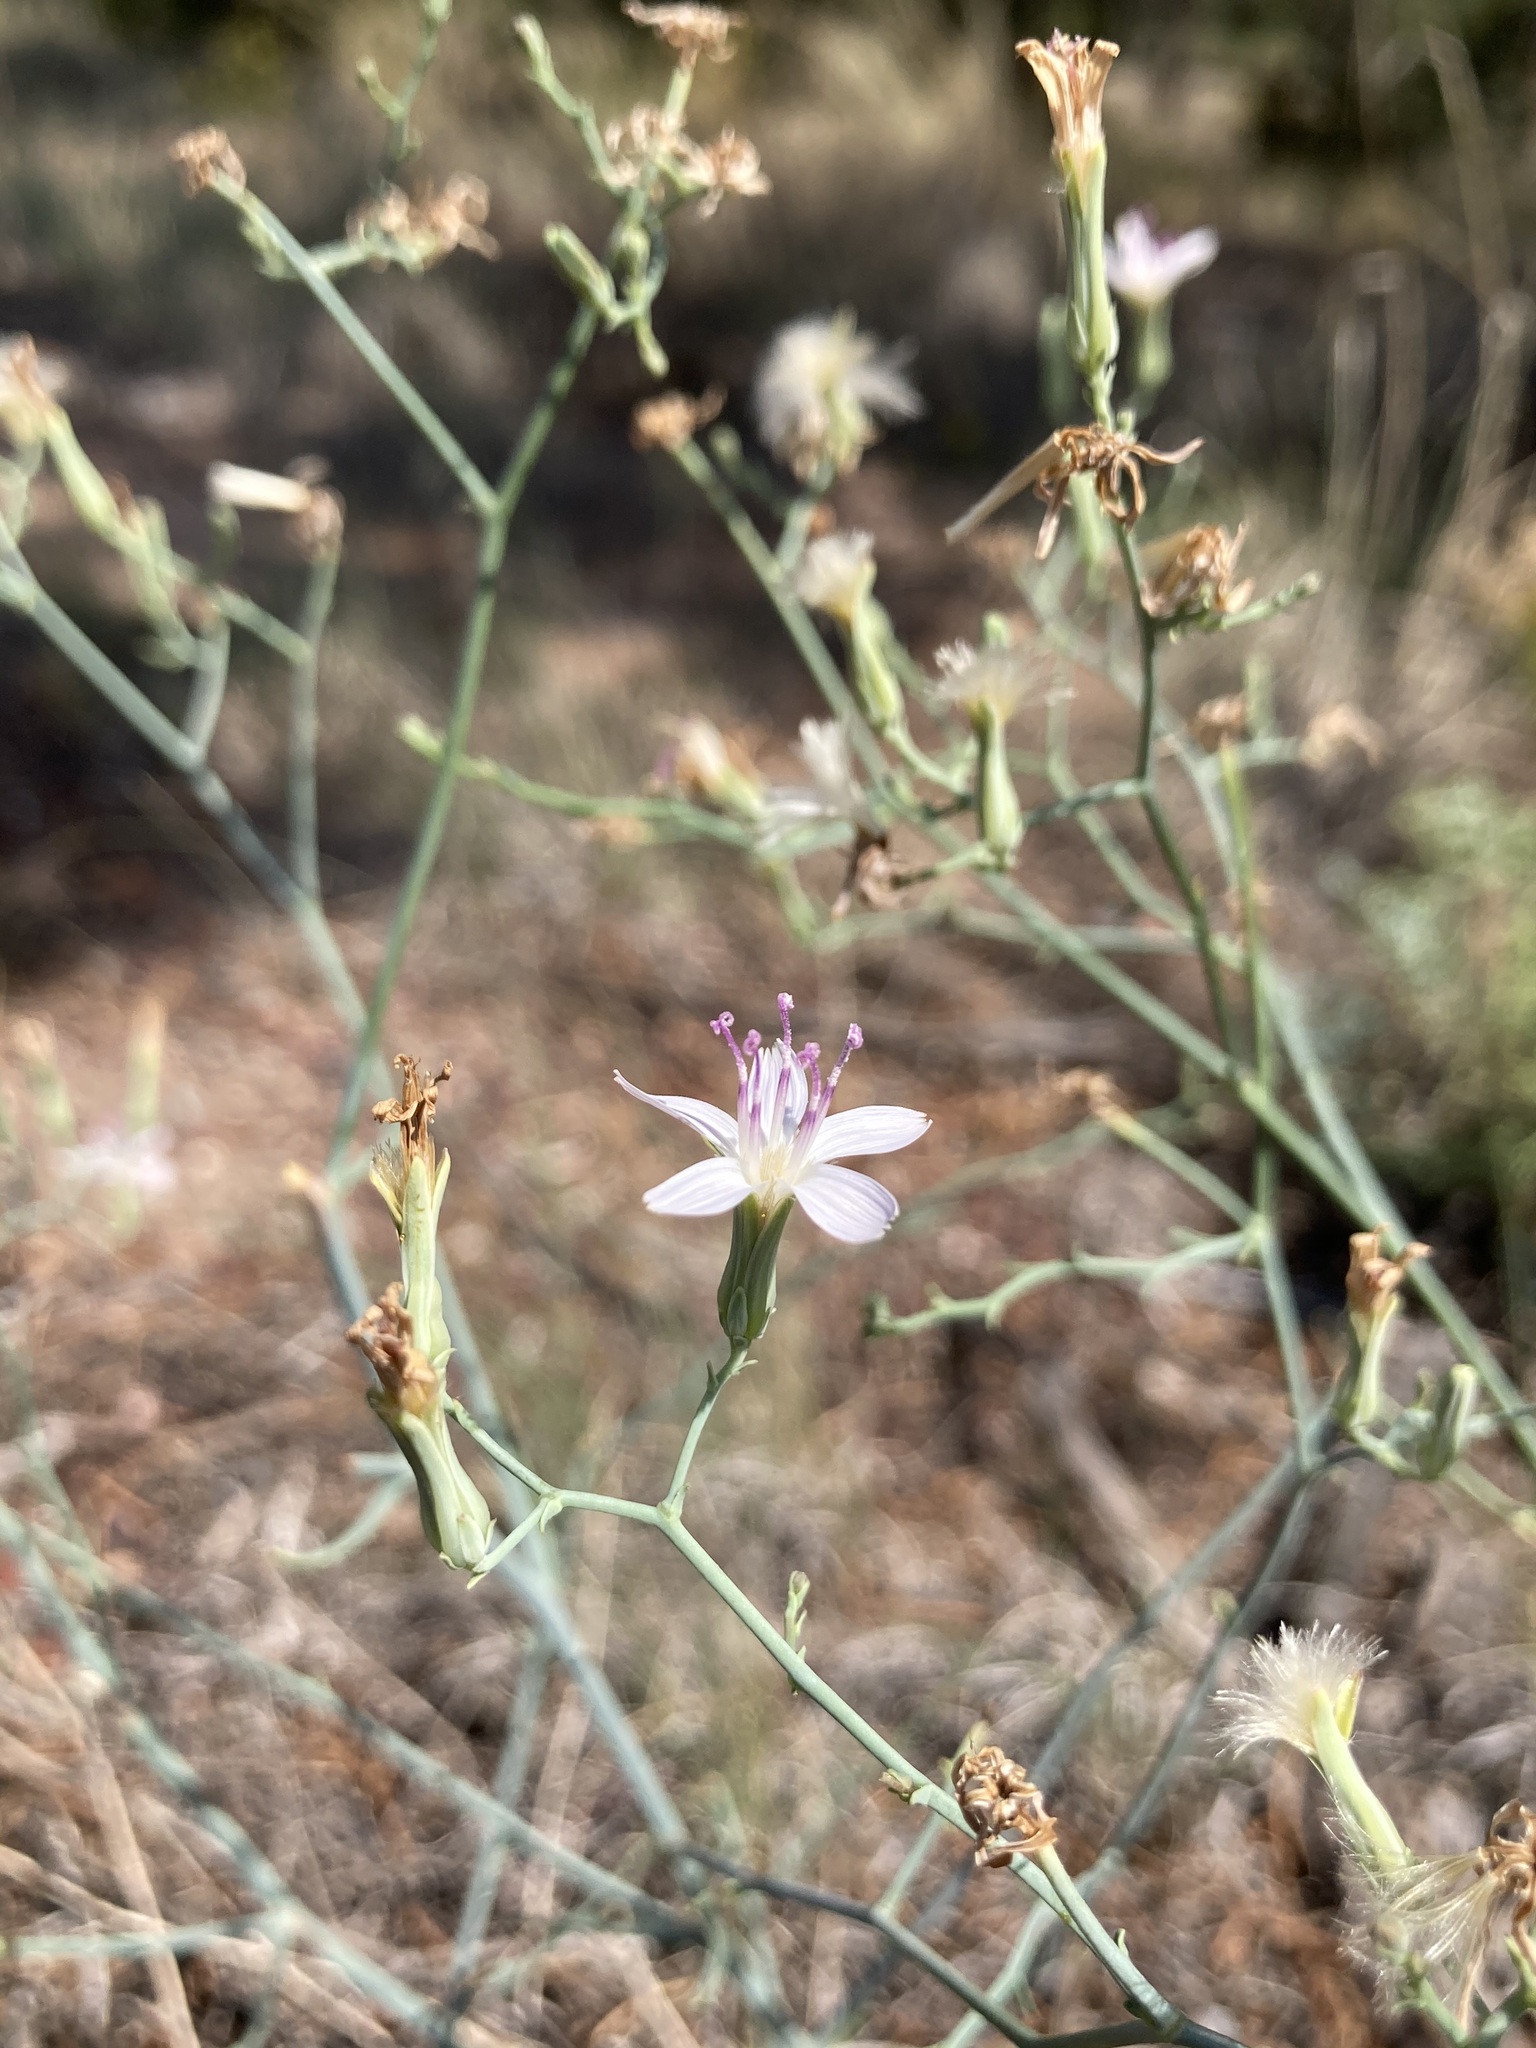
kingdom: Plantae
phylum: Tracheophyta
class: Magnoliopsida
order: Asterales
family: Asteraceae
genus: Stephanomeria
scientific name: Stephanomeria pauciflora
